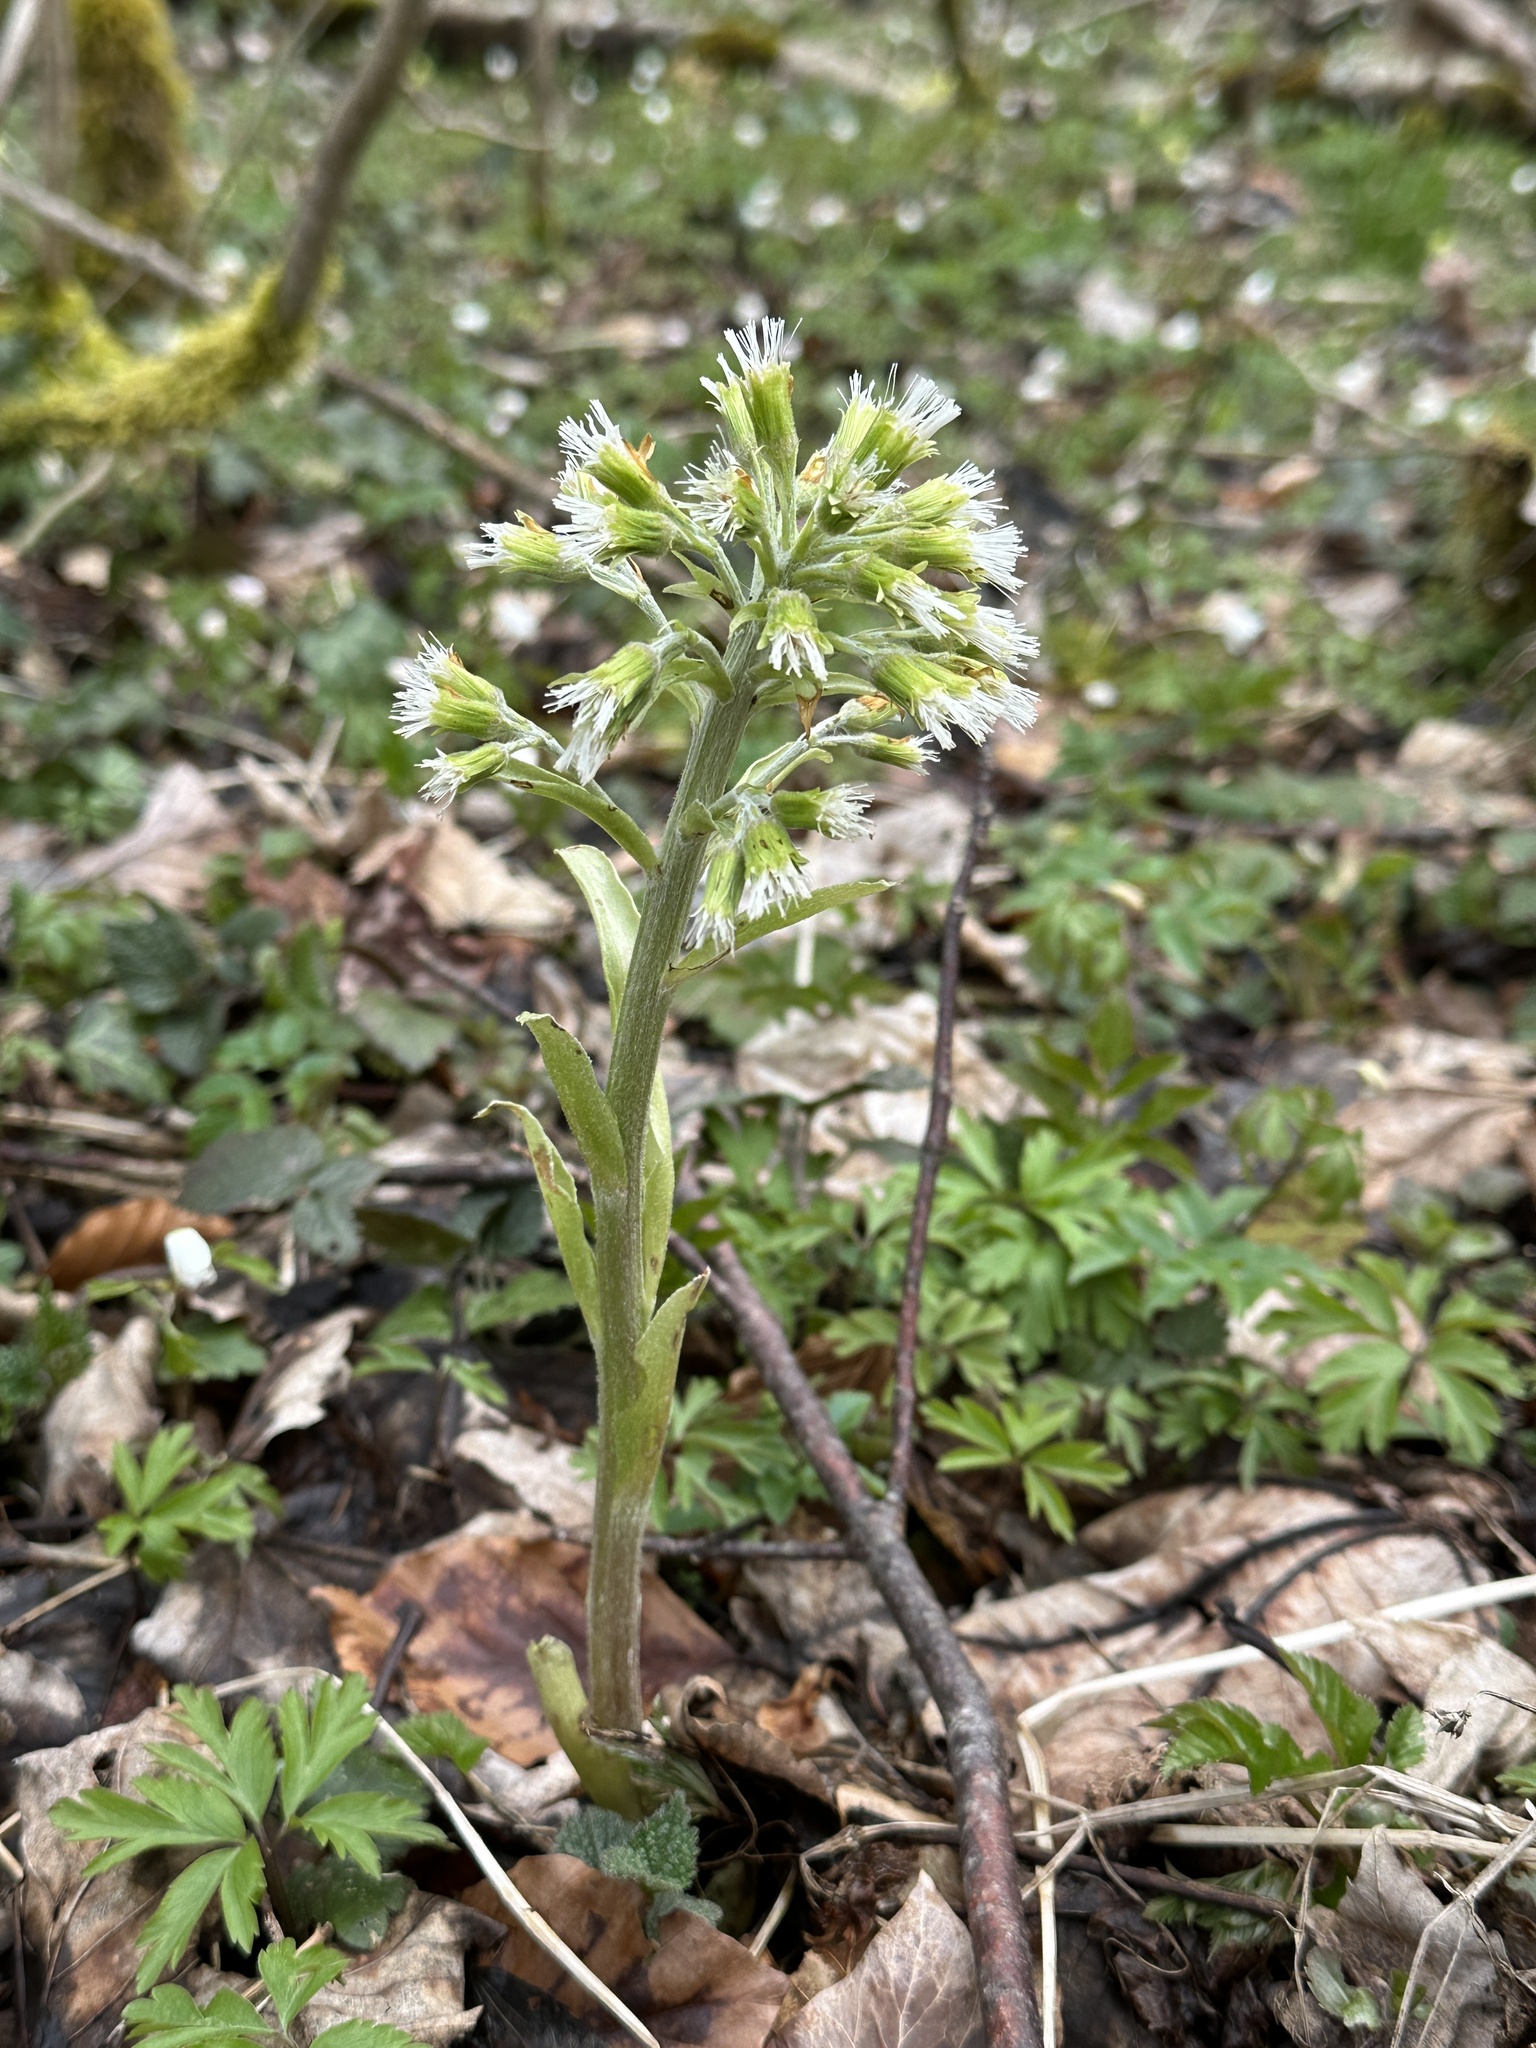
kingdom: Plantae
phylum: Tracheophyta
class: Magnoliopsida
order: Asterales
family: Asteraceae
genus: Petasites
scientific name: Petasites albus
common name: White butterbur
